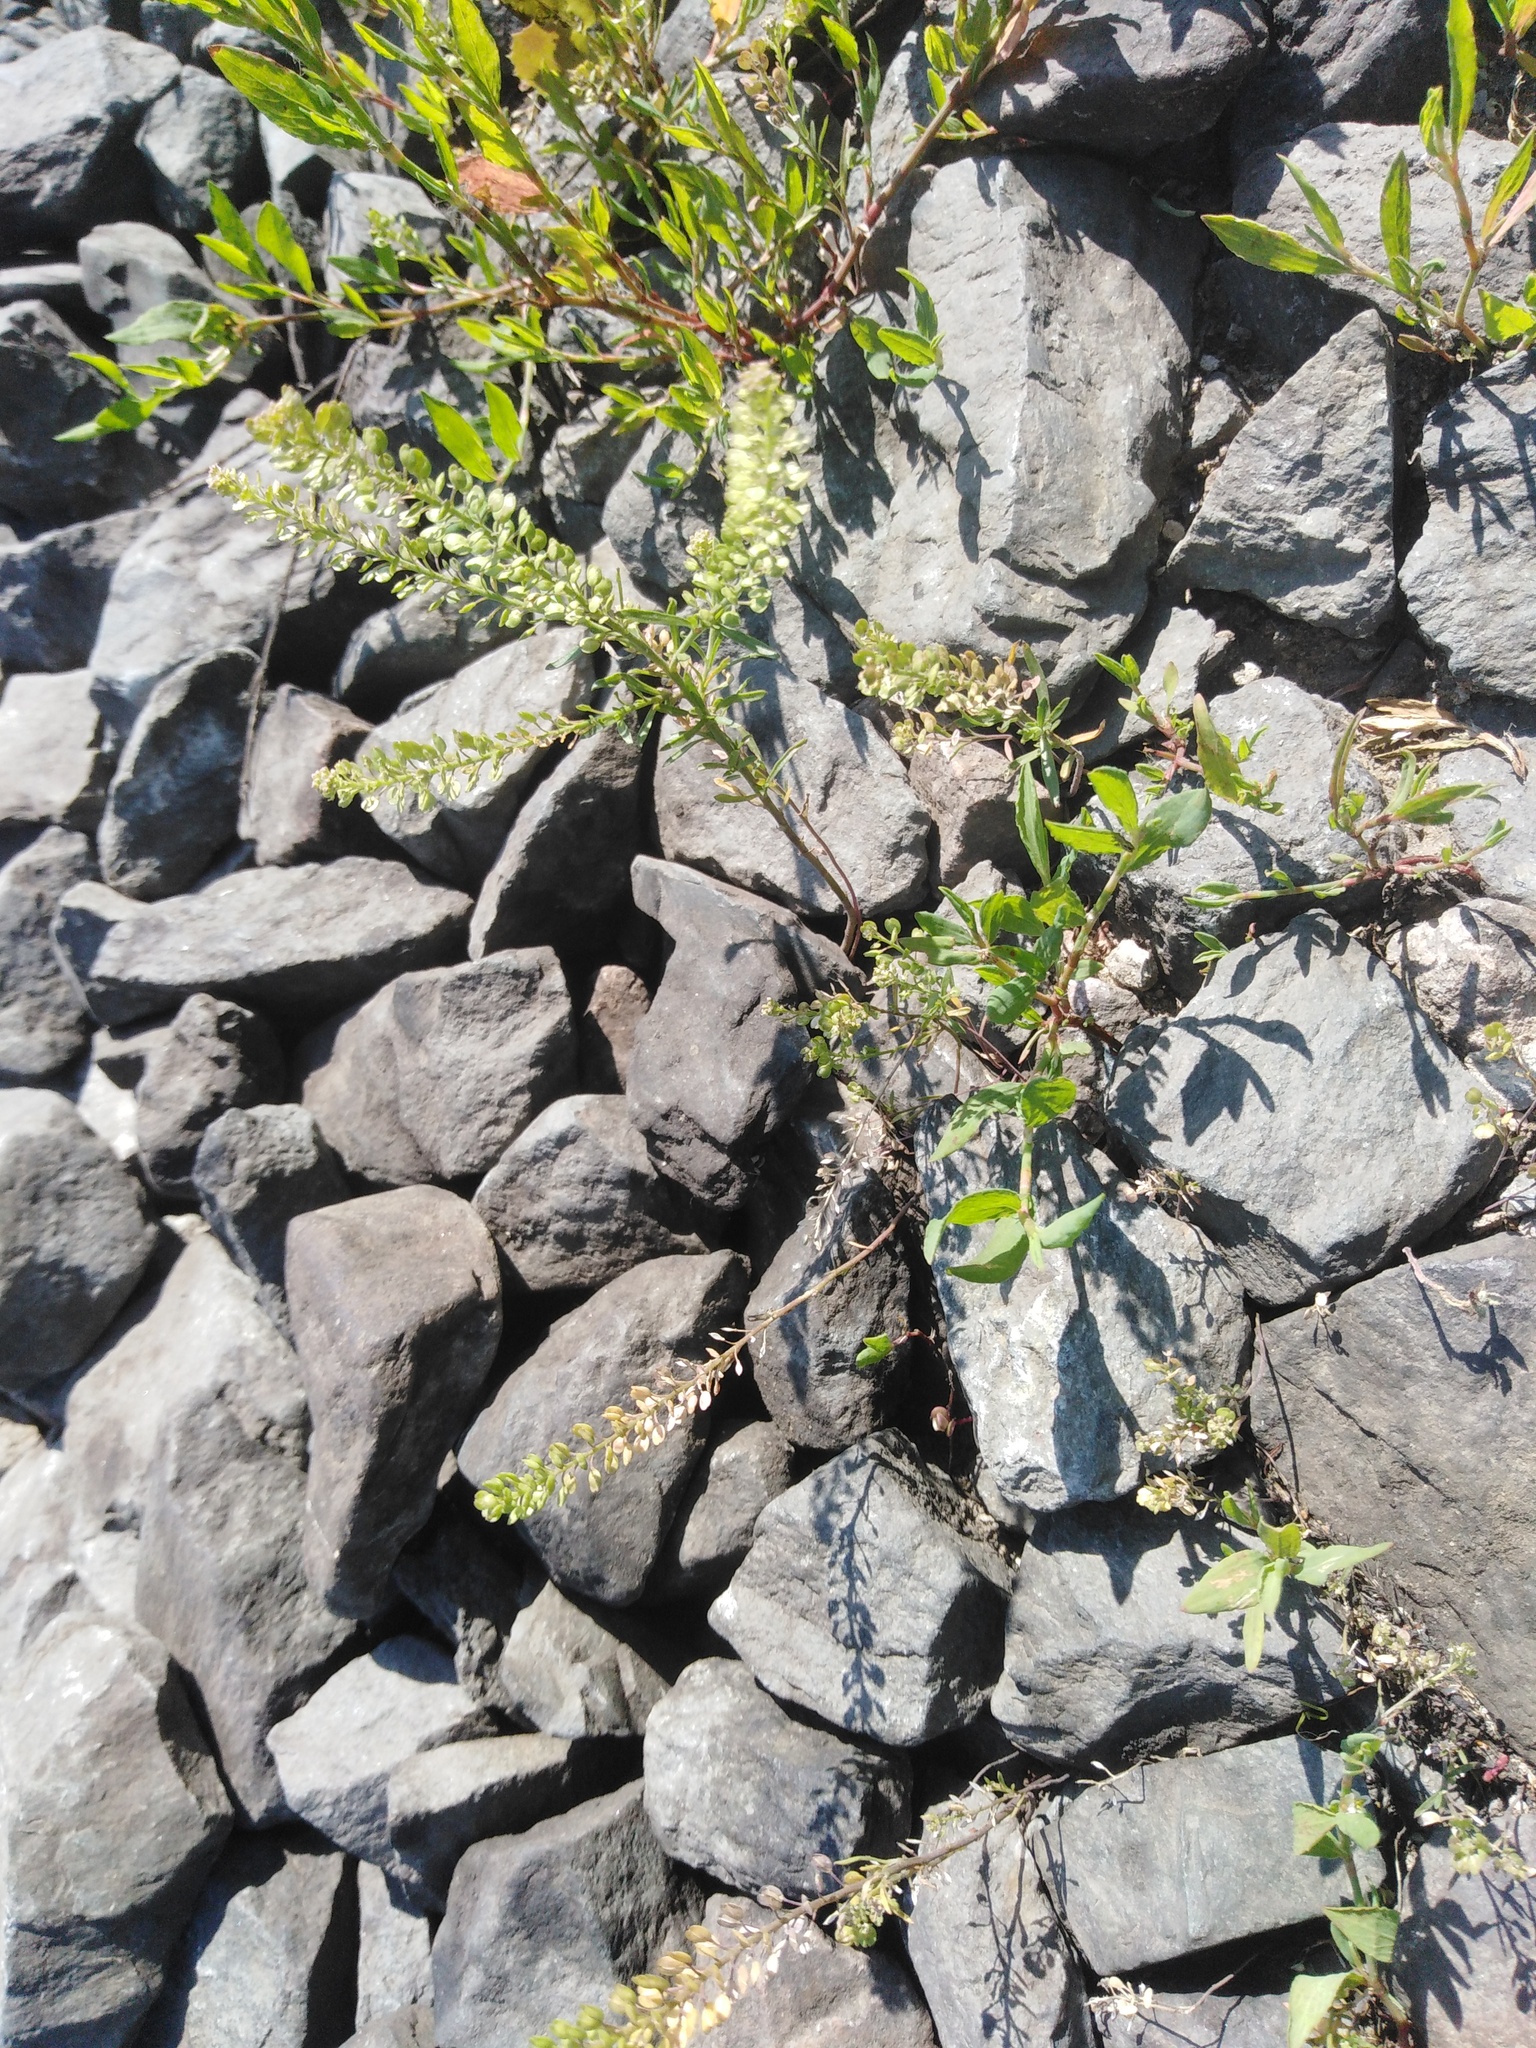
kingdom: Plantae
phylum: Tracheophyta
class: Magnoliopsida
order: Brassicales
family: Brassicaceae
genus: Lepidium
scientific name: Lepidium densiflorum
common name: Miner's pepperwort
